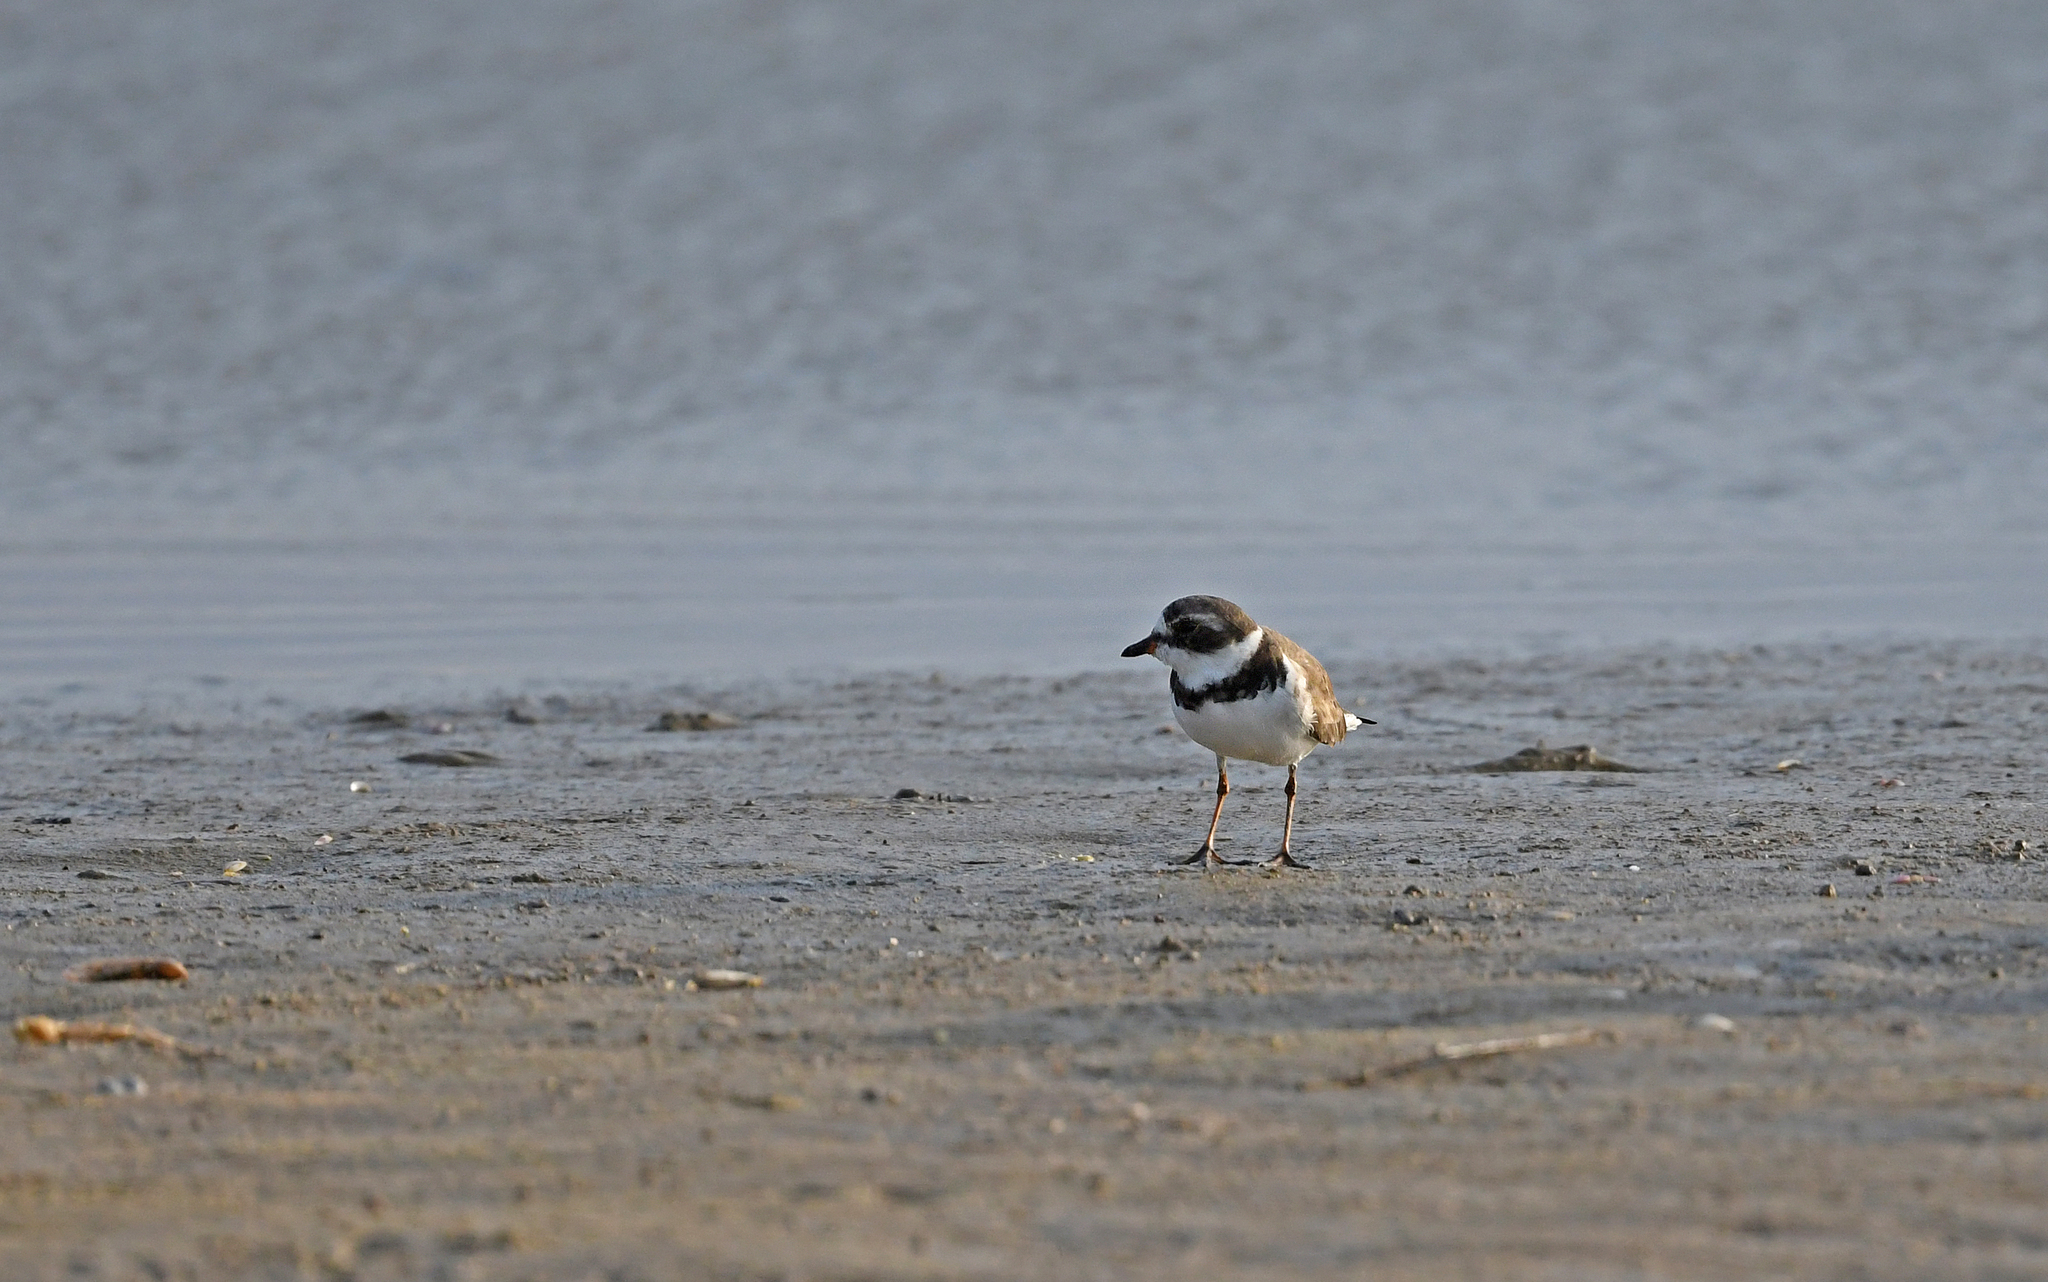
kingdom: Animalia
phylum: Chordata
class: Aves
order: Charadriiformes
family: Charadriidae
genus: Charadrius
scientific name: Charadrius semipalmatus
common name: Semipalmated plover
